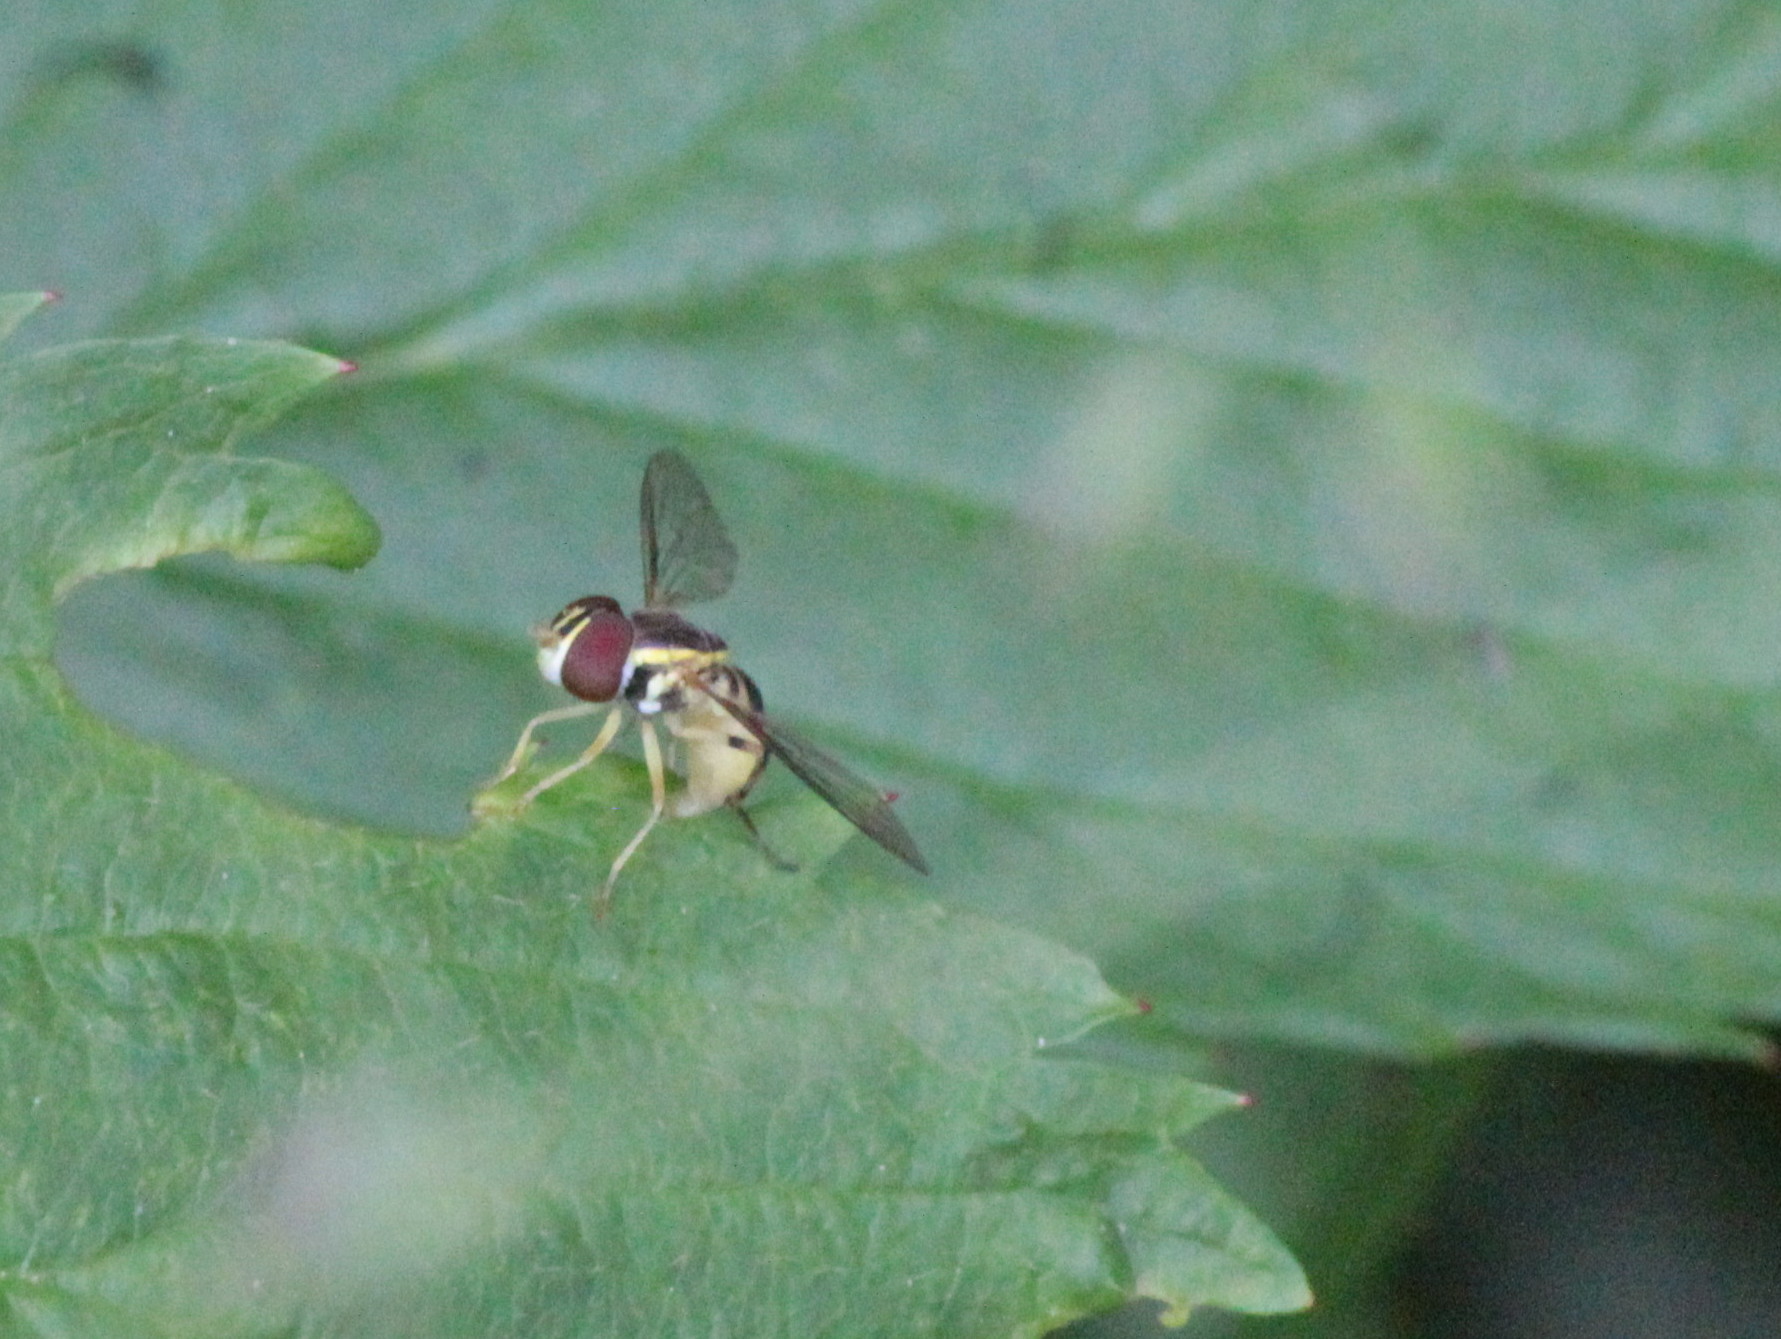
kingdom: Animalia
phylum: Arthropoda
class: Insecta
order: Diptera
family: Syrphidae
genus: Toxomerus
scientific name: Toxomerus geminatus
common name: Eastern calligrapher
